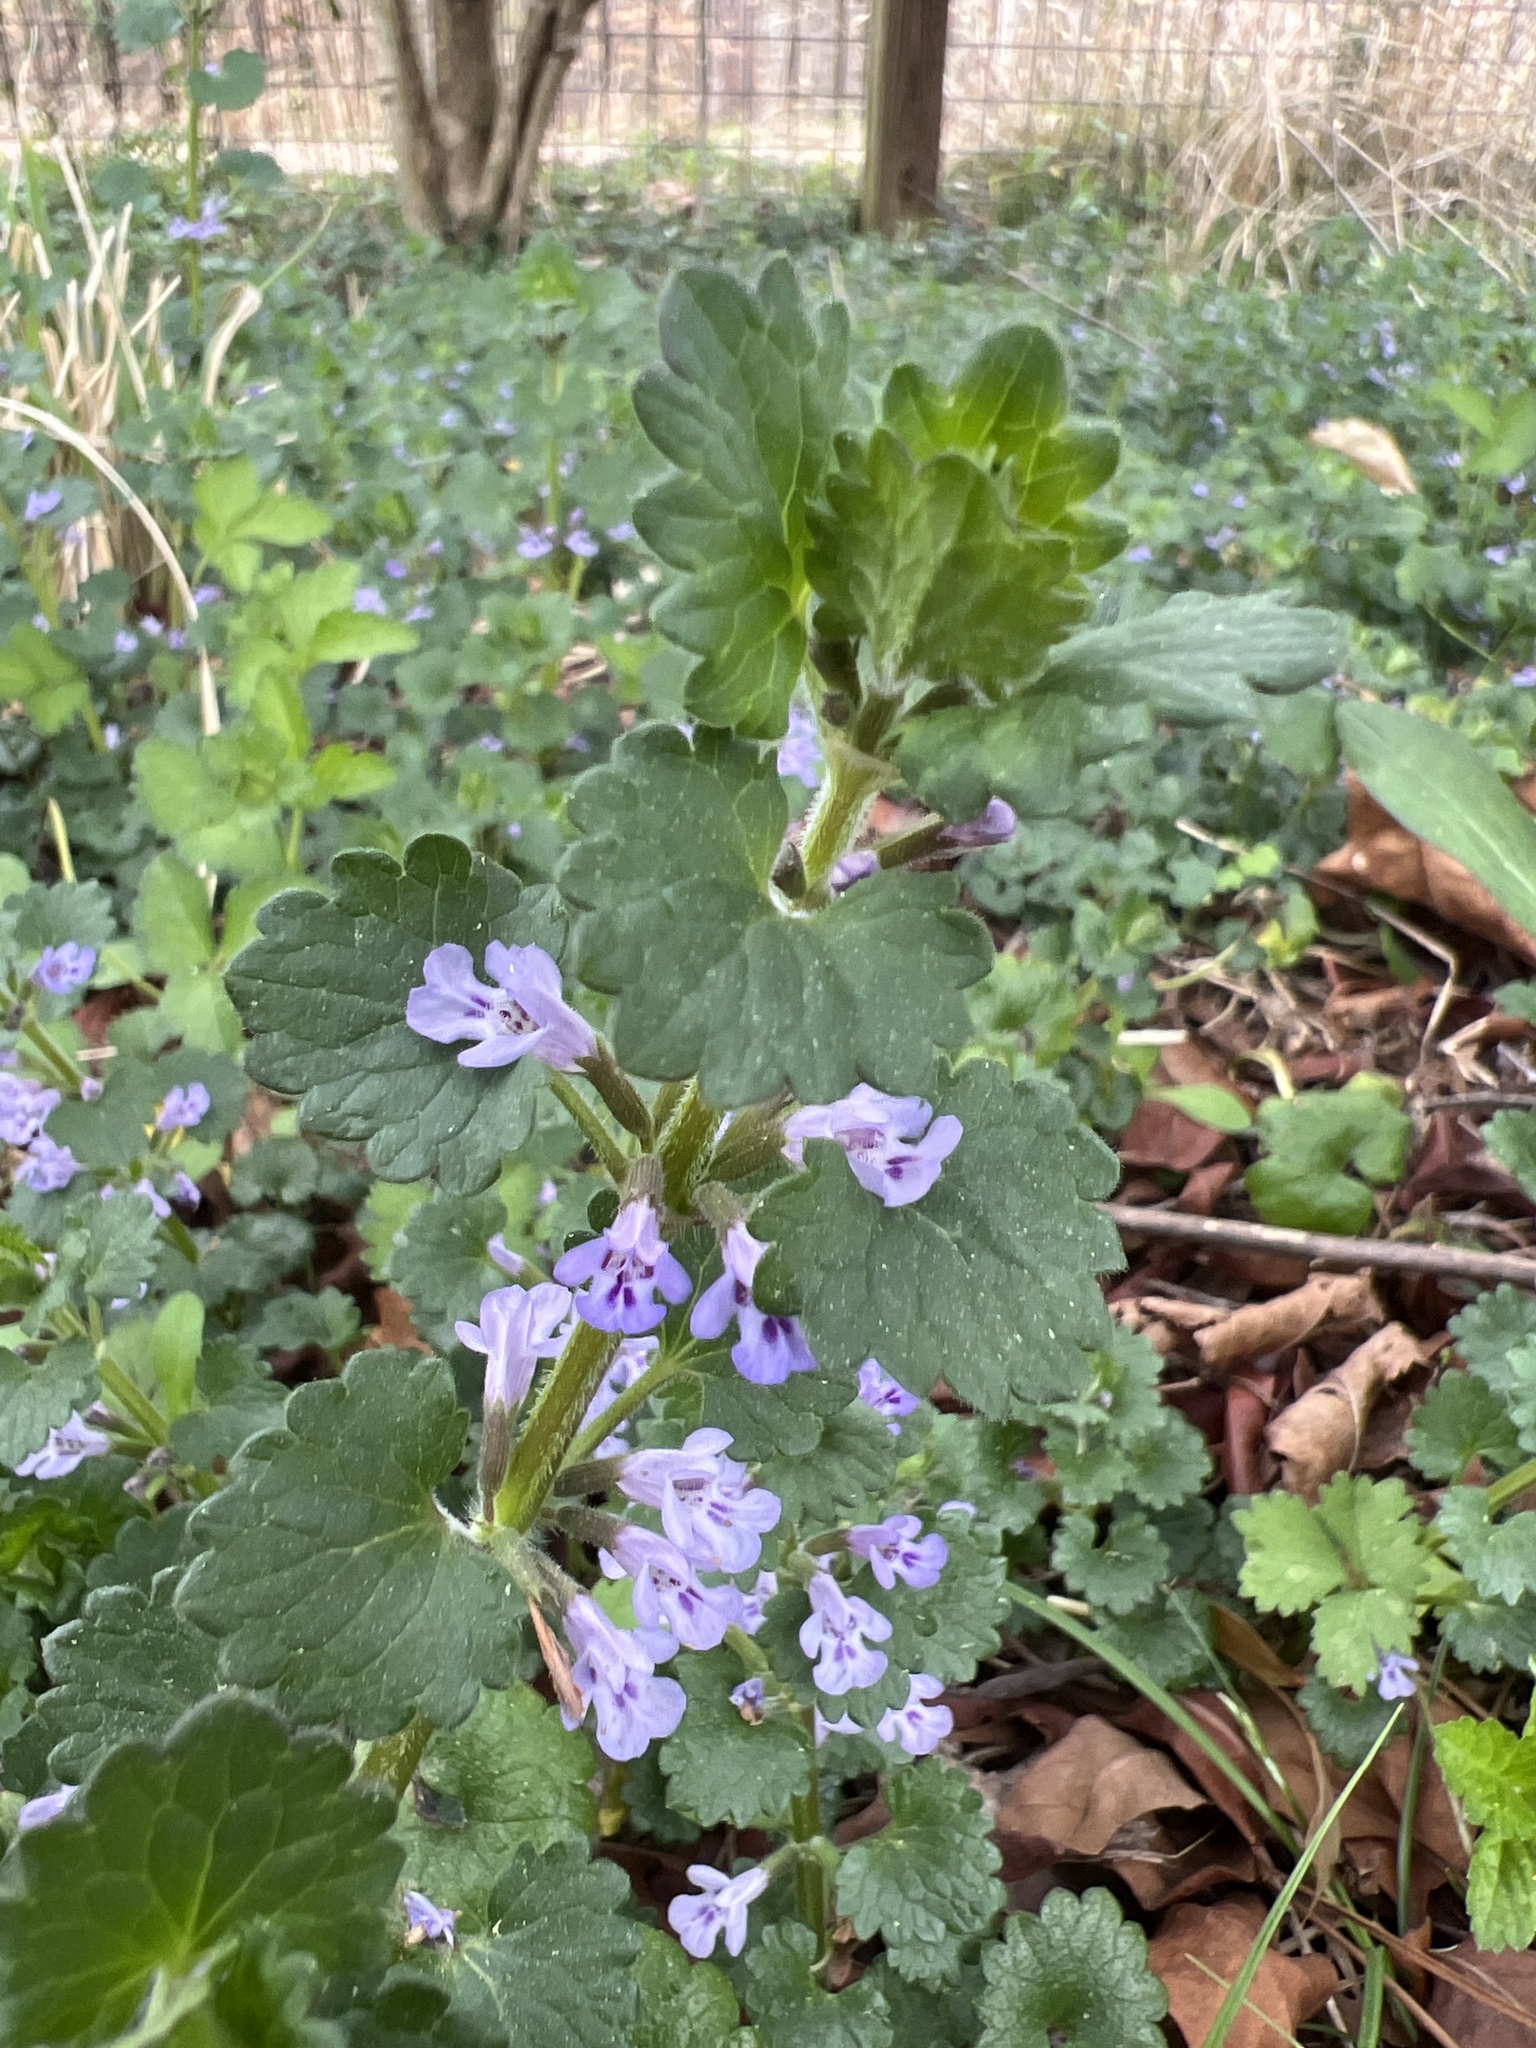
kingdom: Plantae
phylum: Tracheophyta
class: Magnoliopsida
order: Lamiales
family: Lamiaceae
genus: Glechoma
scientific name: Glechoma hederacea
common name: Ground ivy
